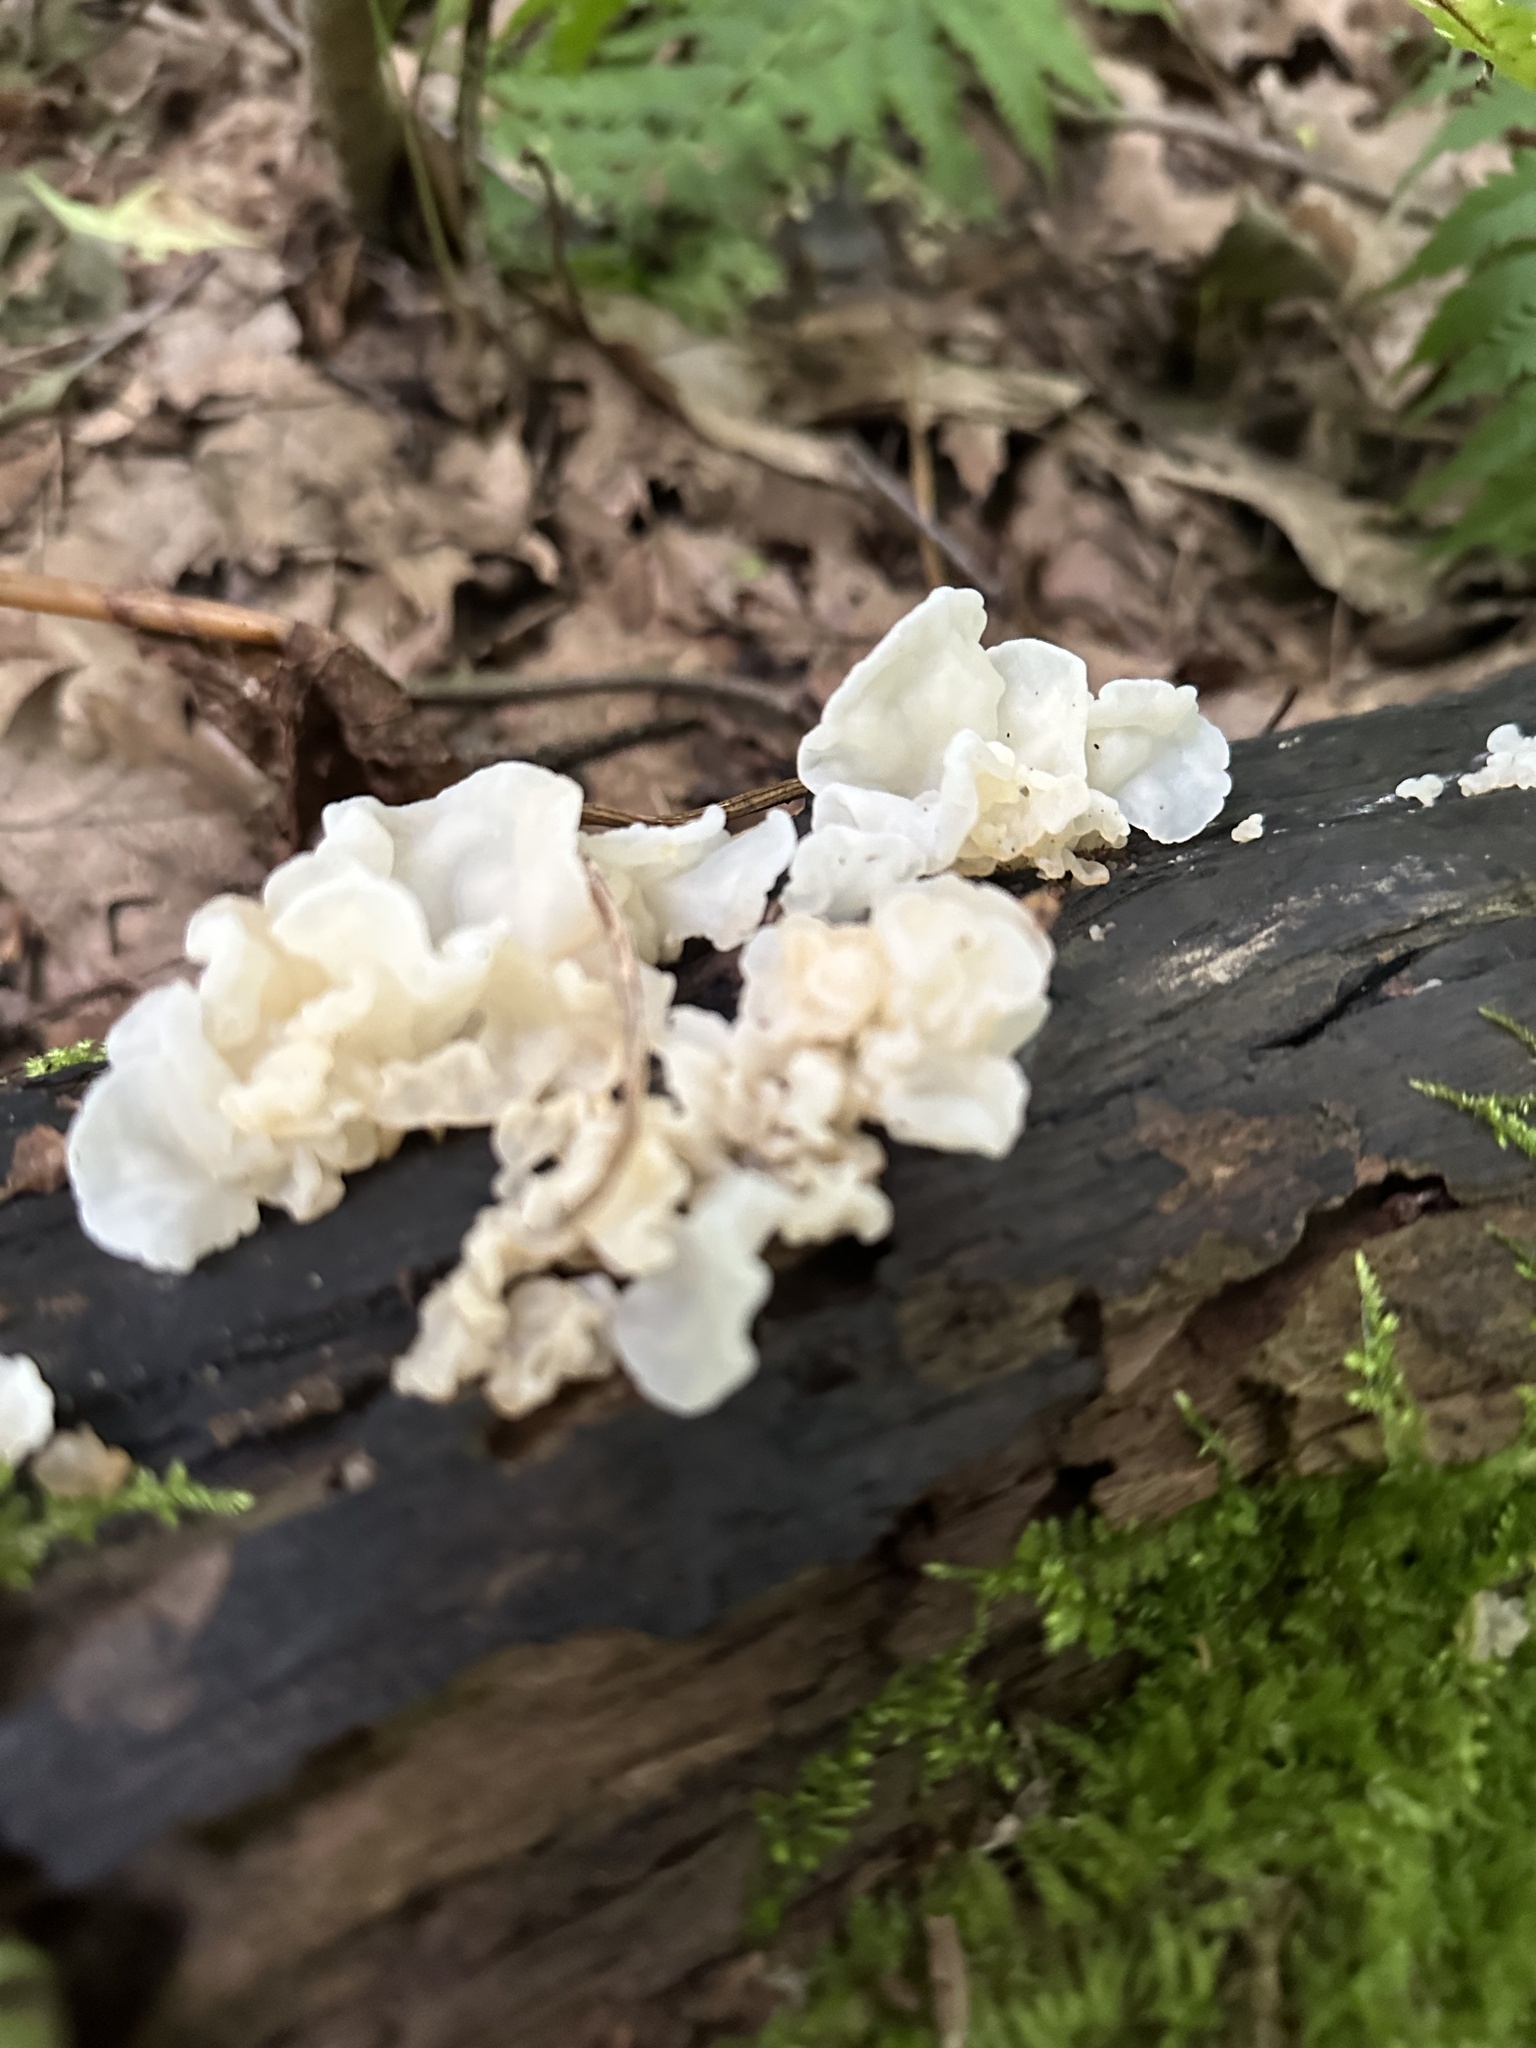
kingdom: Fungi
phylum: Basidiomycota
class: Agaricomycetes
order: Auriculariales
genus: Ductifera
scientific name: Ductifera pululahuana
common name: White jelly fungus
